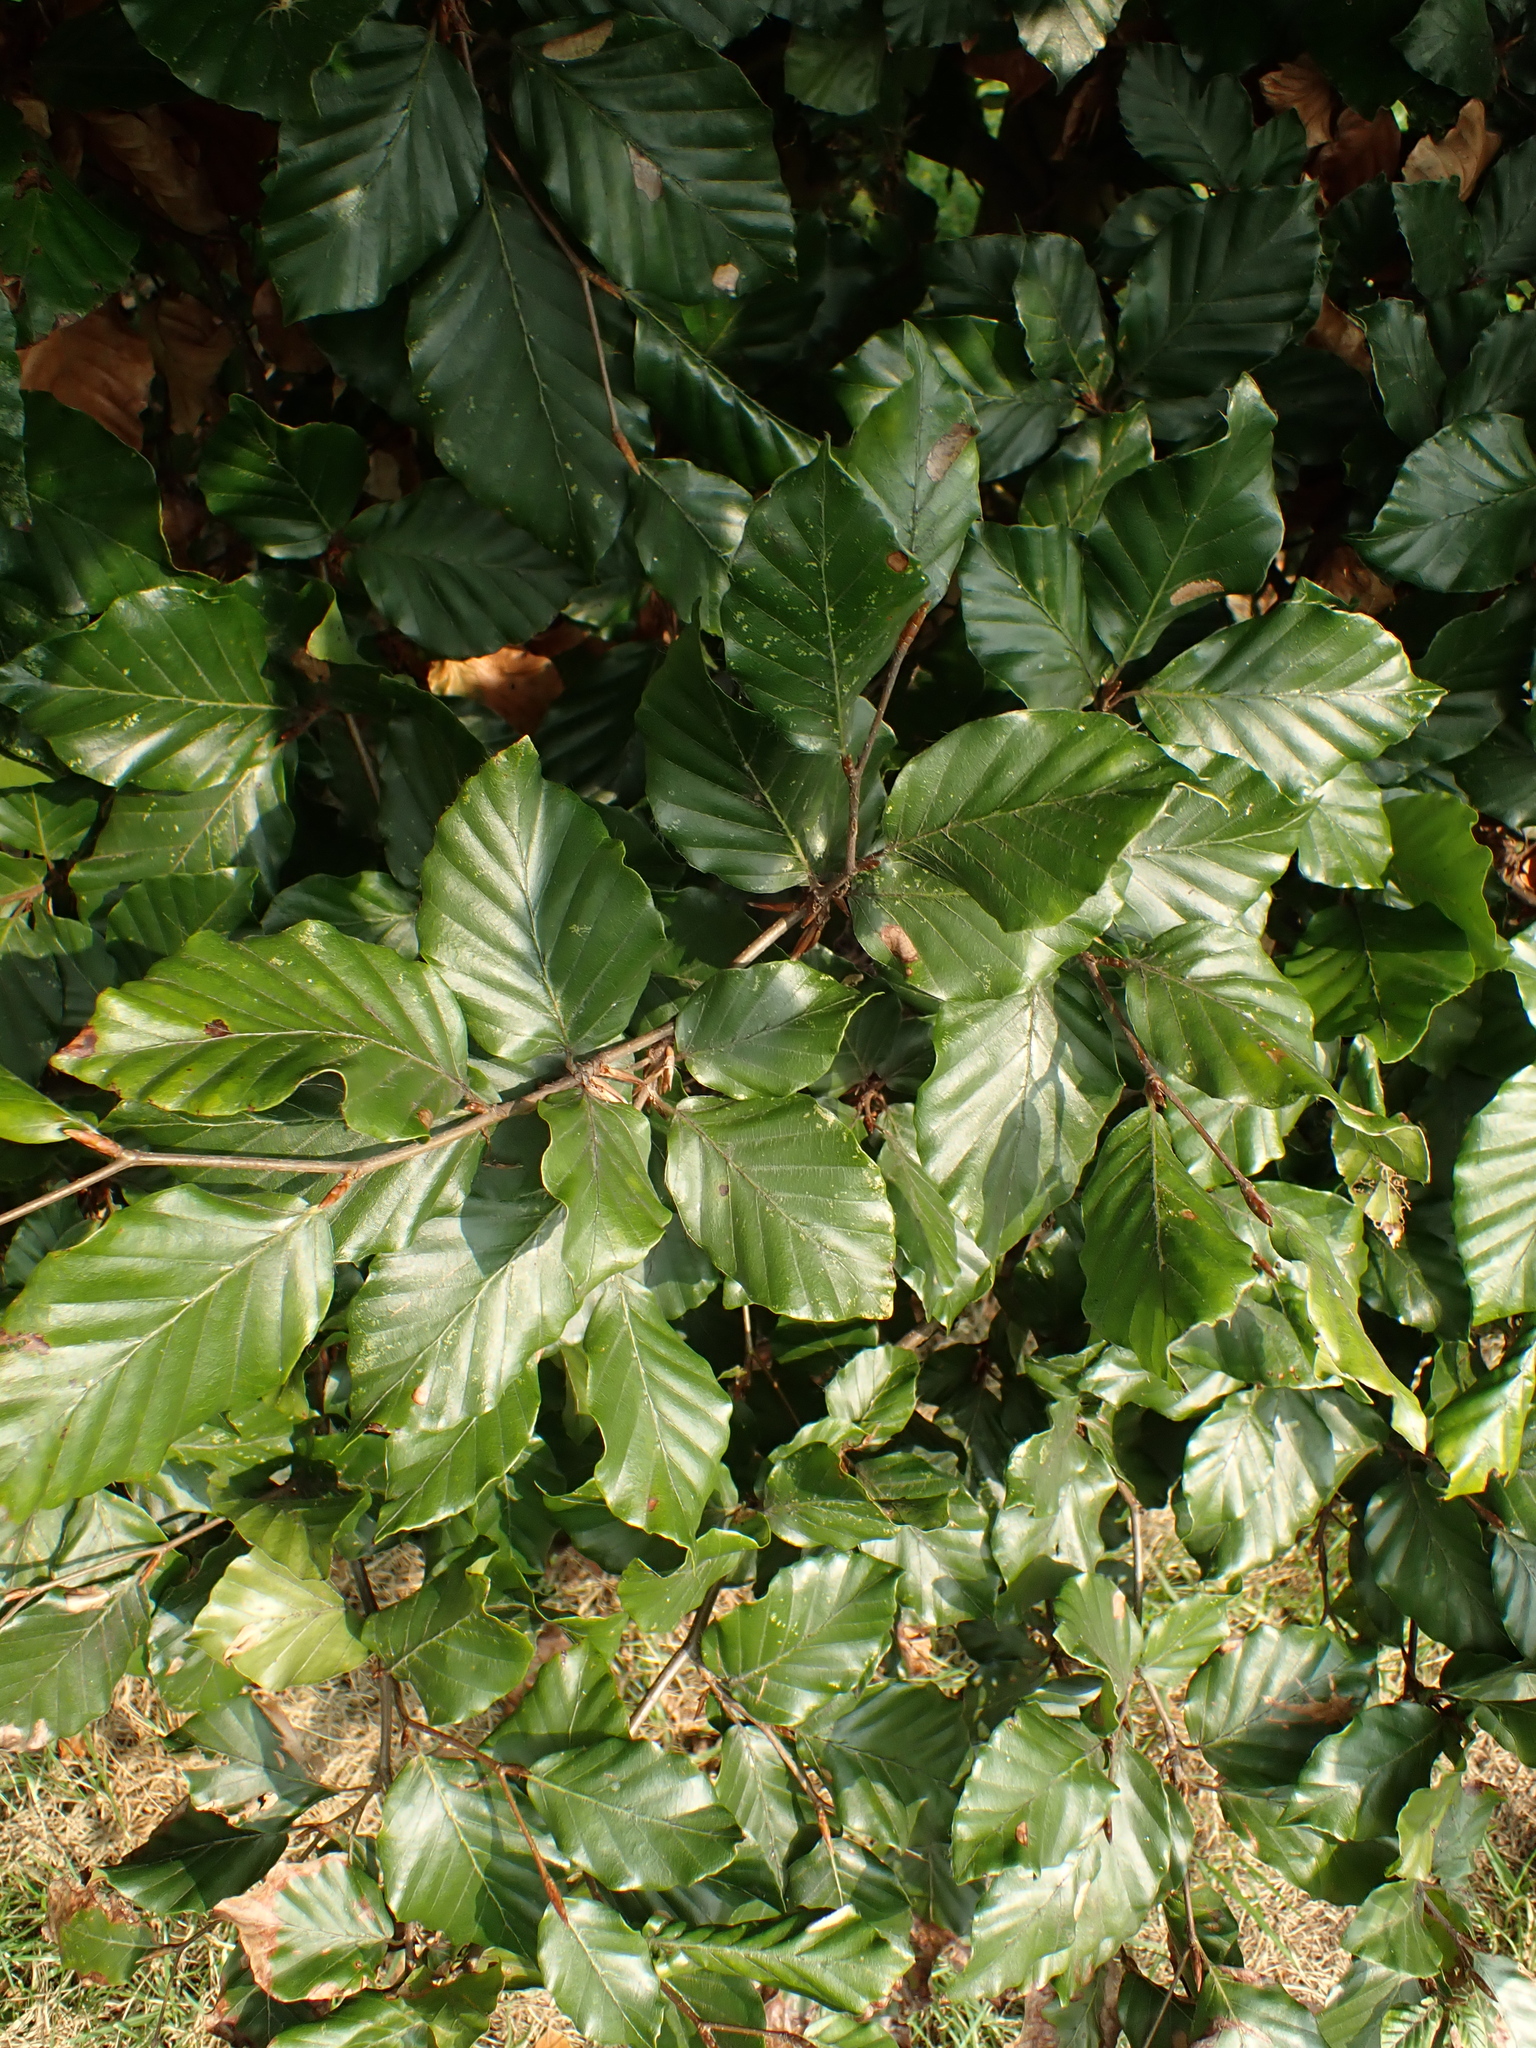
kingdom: Plantae
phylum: Tracheophyta
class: Magnoliopsida
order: Fagales
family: Fagaceae
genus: Fagus
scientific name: Fagus sylvatica
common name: Beech
